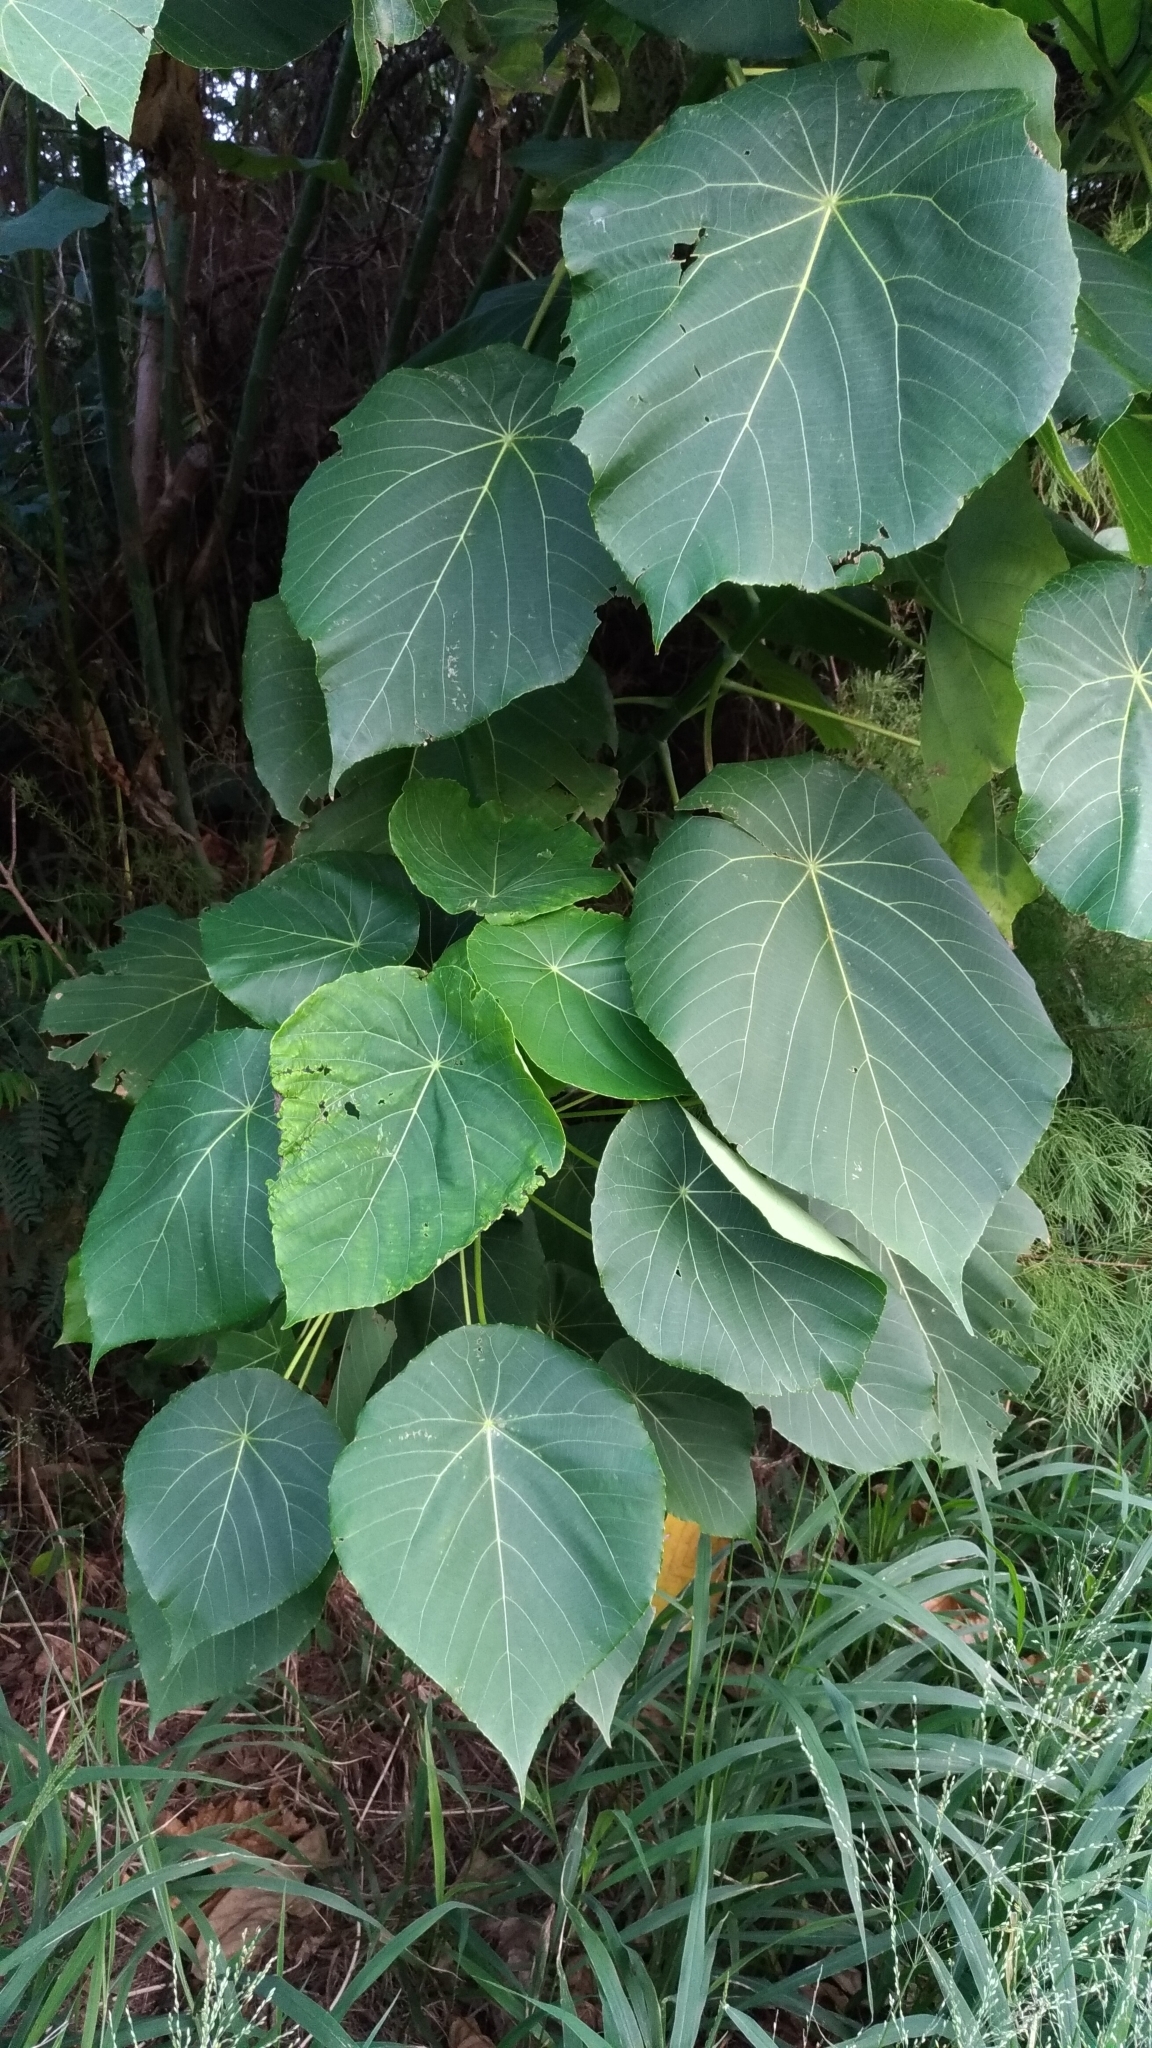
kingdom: Plantae
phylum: Tracheophyta
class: Magnoliopsida
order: Malpighiales
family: Euphorbiaceae
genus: Macaranga
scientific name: Macaranga tanarius
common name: Parasol leaf tree
